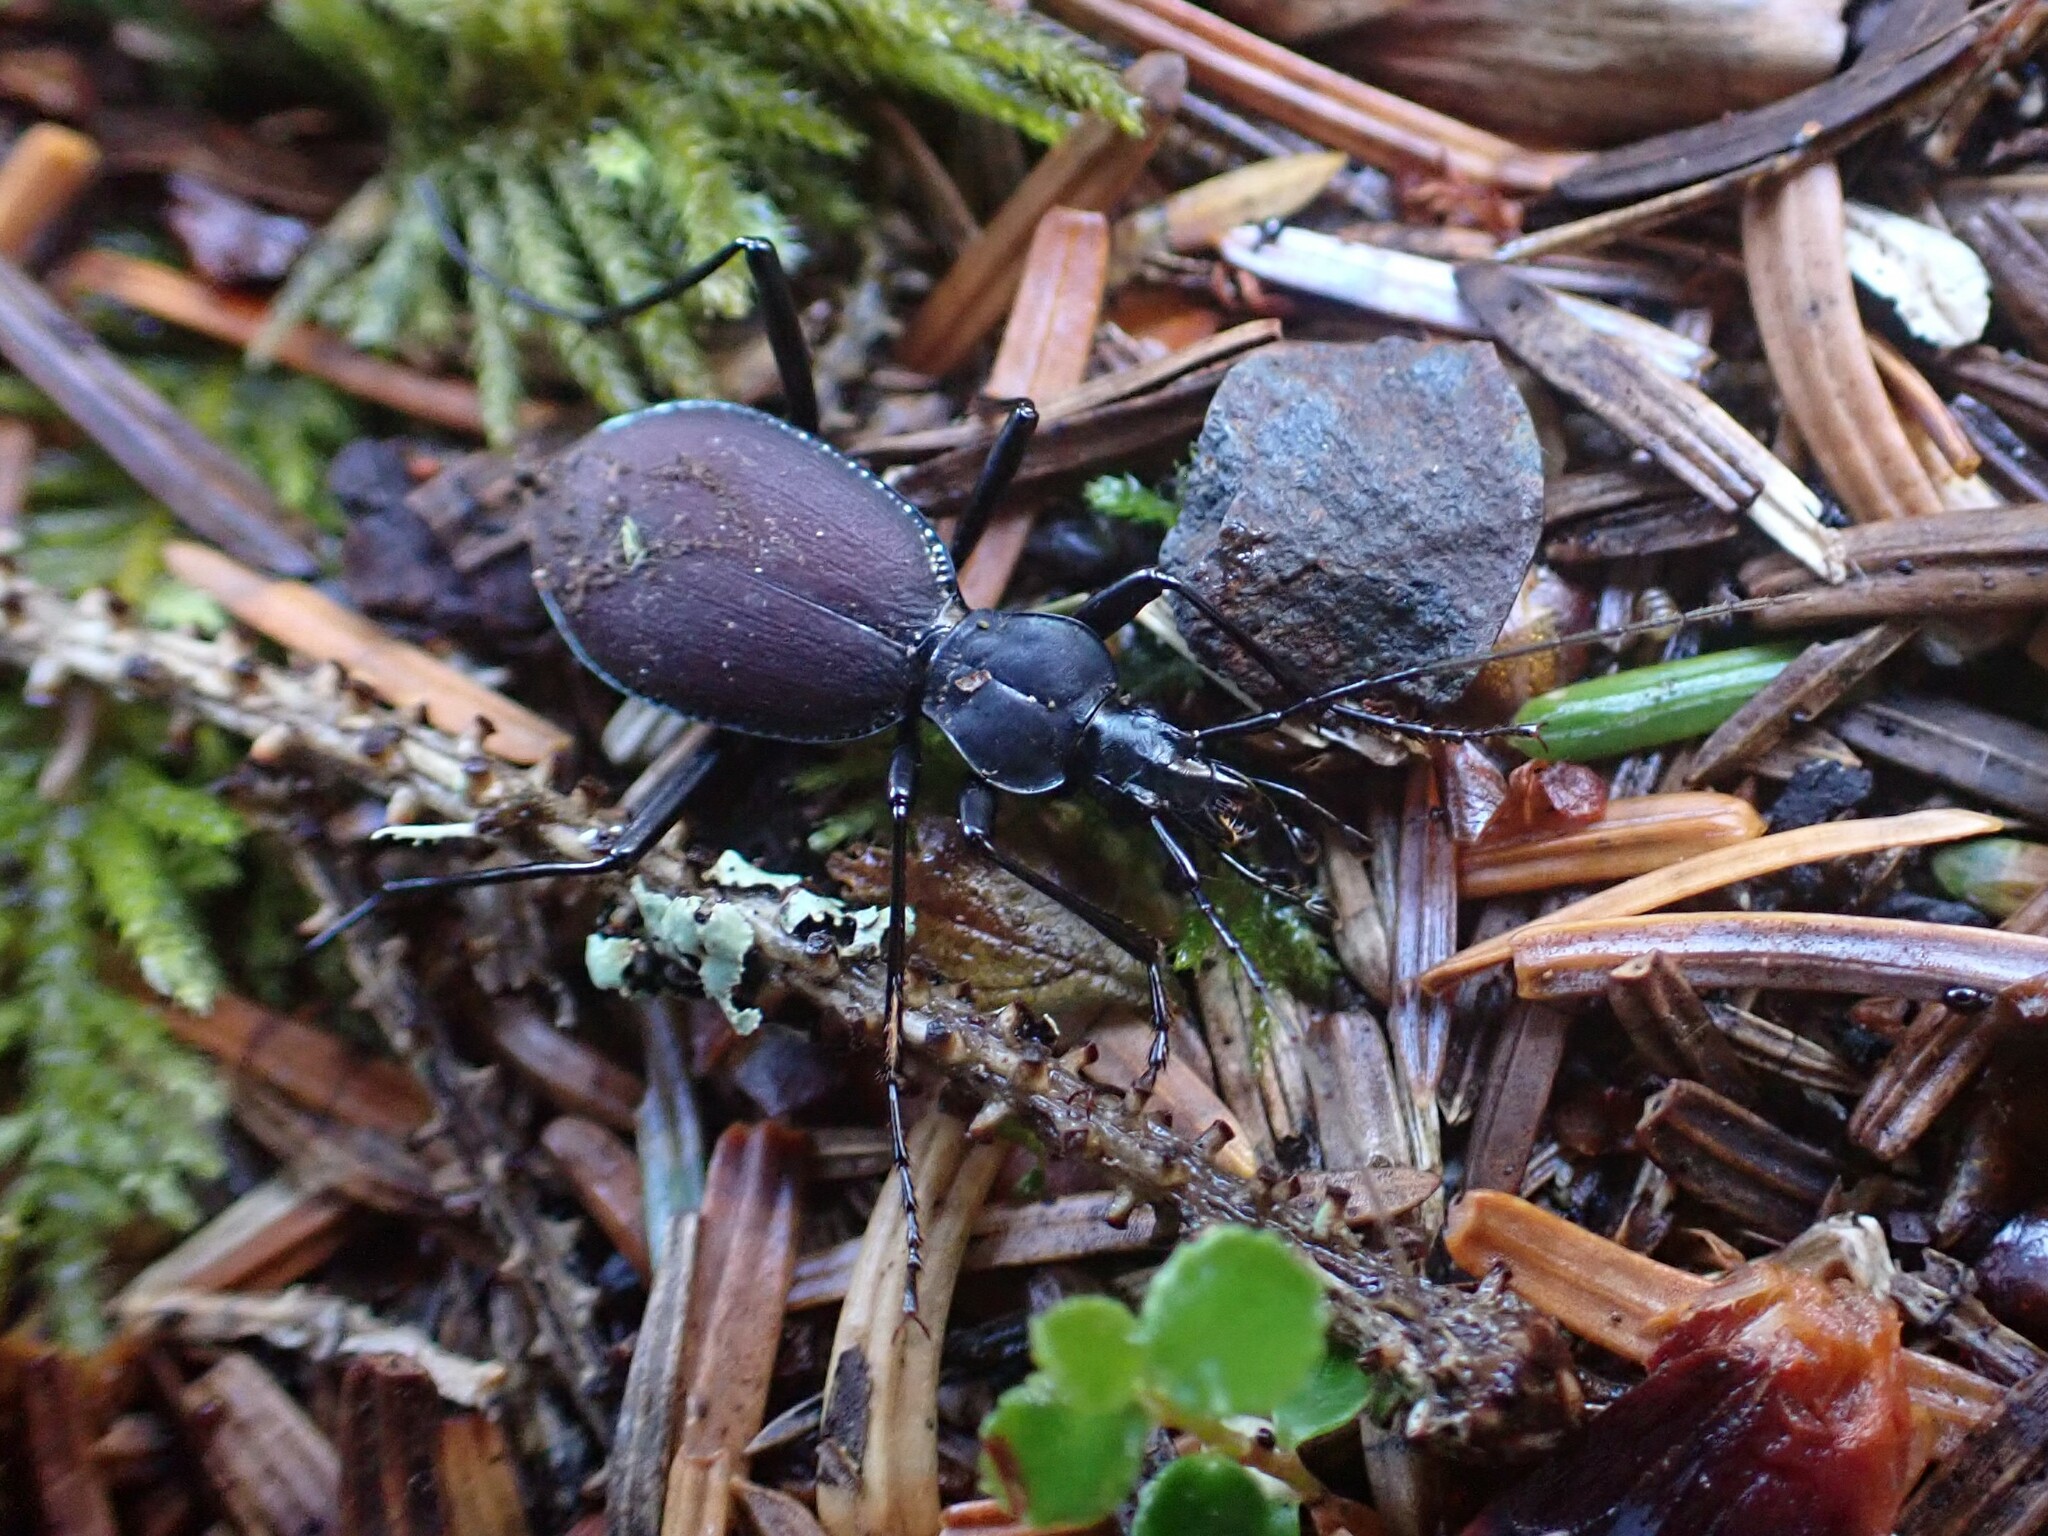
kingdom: Animalia
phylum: Arthropoda
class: Insecta
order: Coleoptera
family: Carabidae
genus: Scaphinotus
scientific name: Scaphinotus angusticollis
